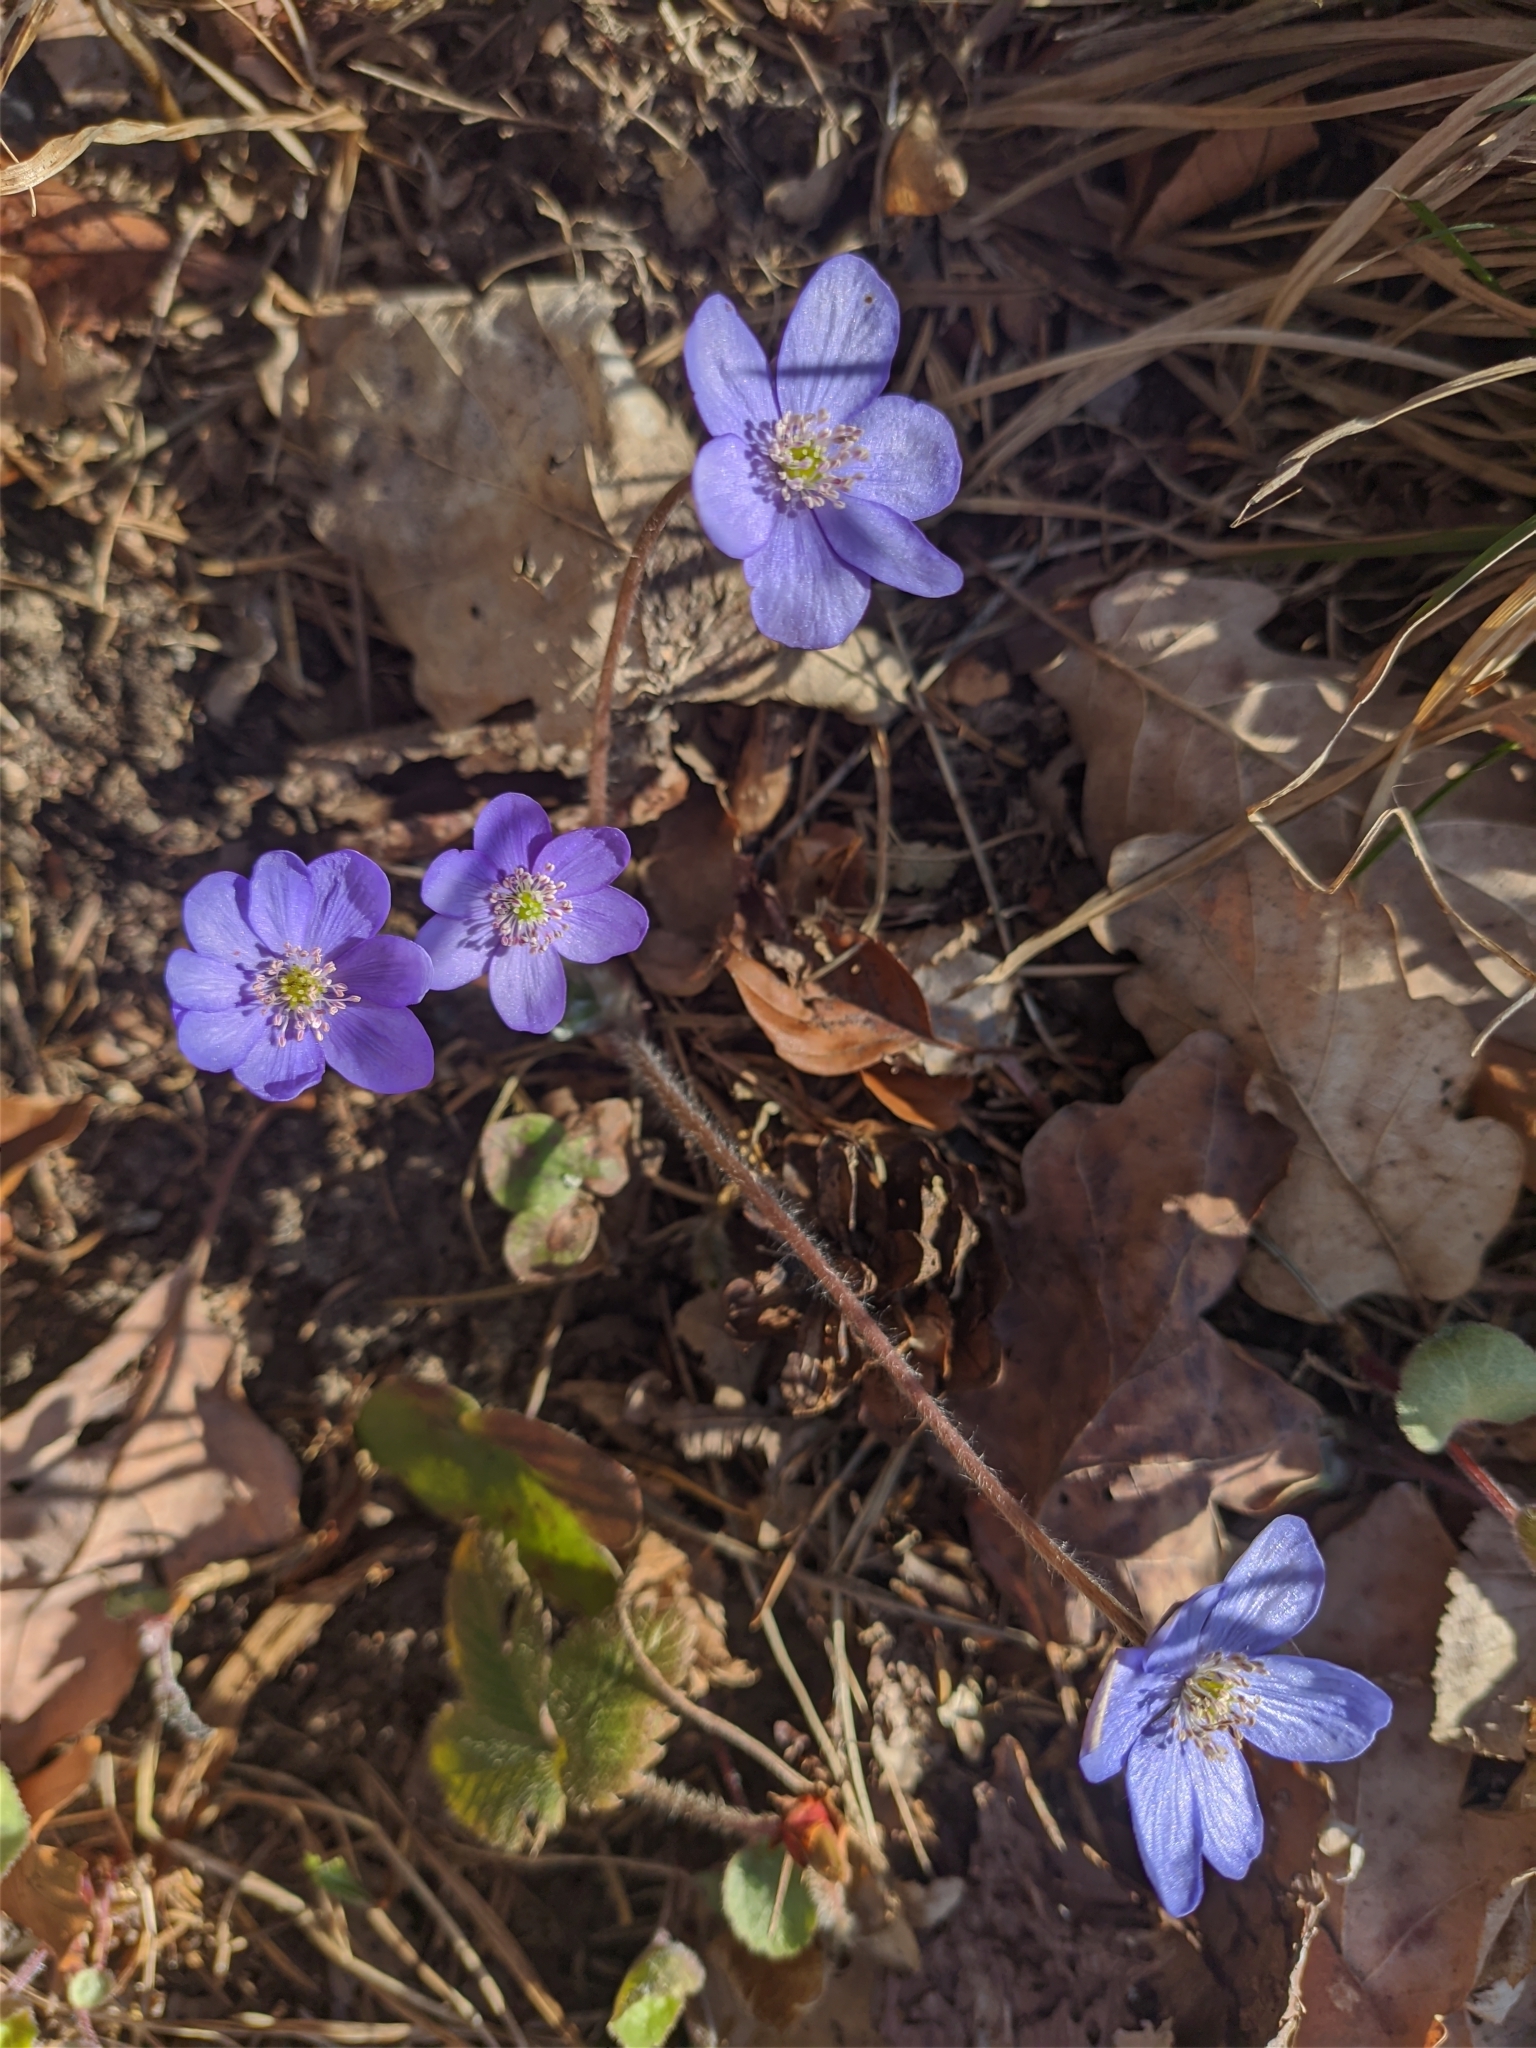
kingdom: Plantae
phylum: Tracheophyta
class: Magnoliopsida
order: Ranunculales
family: Ranunculaceae
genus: Hepatica
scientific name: Hepatica nobilis
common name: Liverleaf
